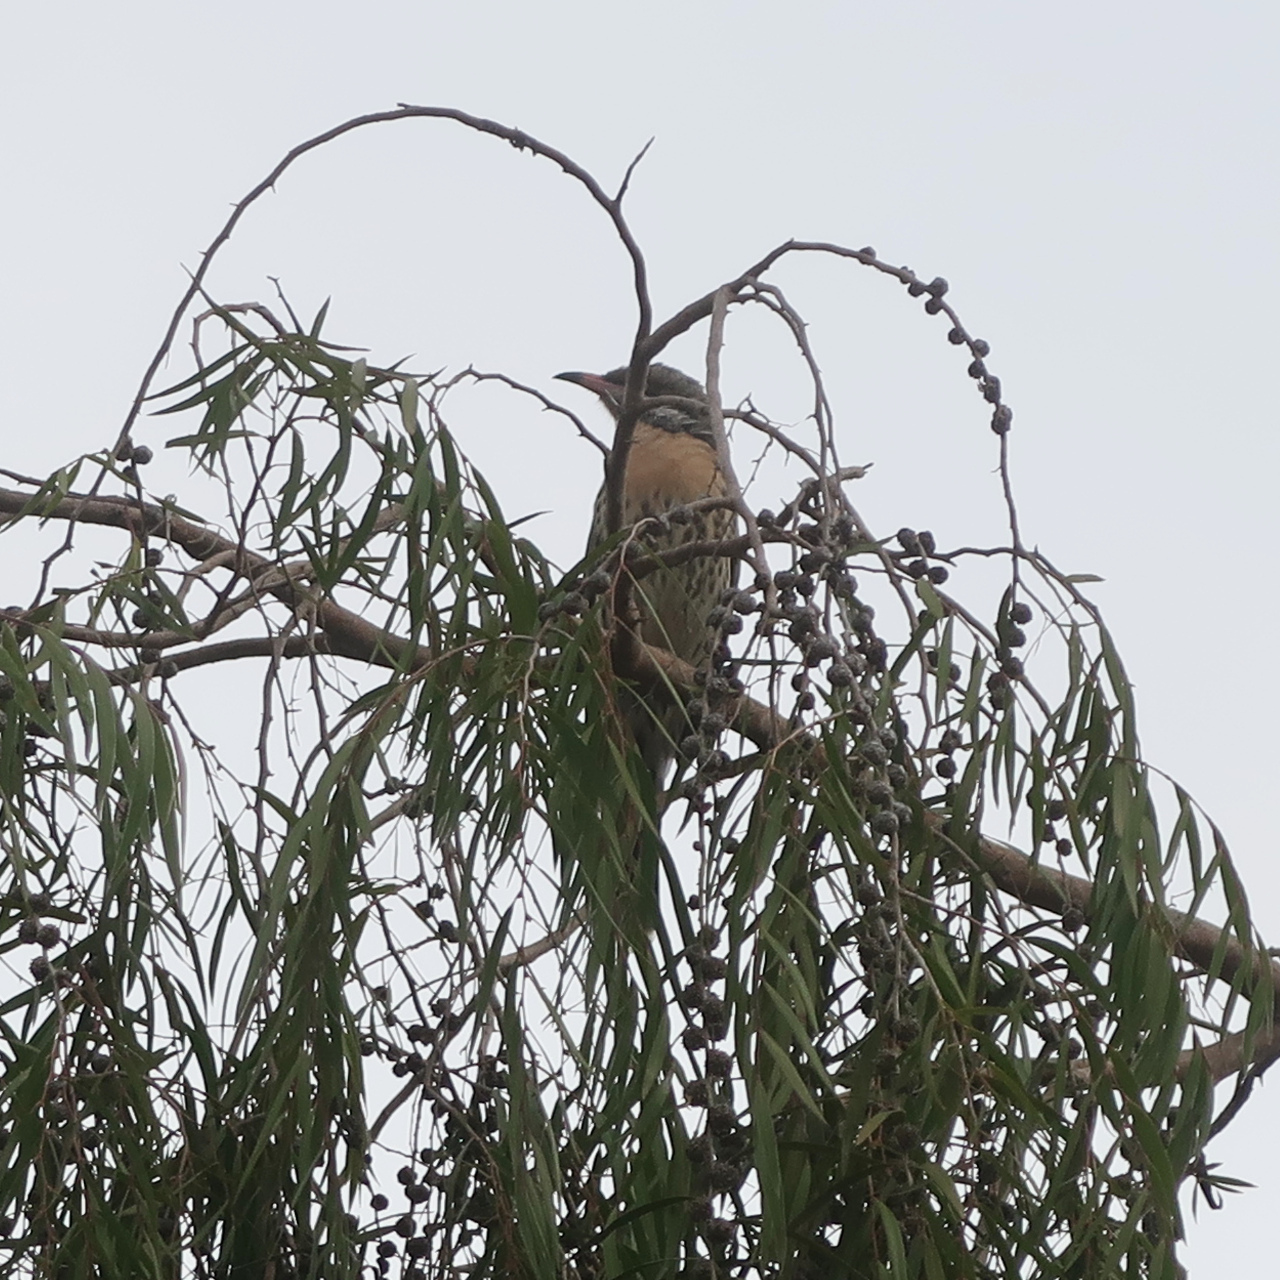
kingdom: Animalia
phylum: Chordata
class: Aves
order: Passeriformes
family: Meliphagidae
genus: Acanthagenys
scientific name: Acanthagenys rufogularis
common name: Spiny-cheeked honeyeater
